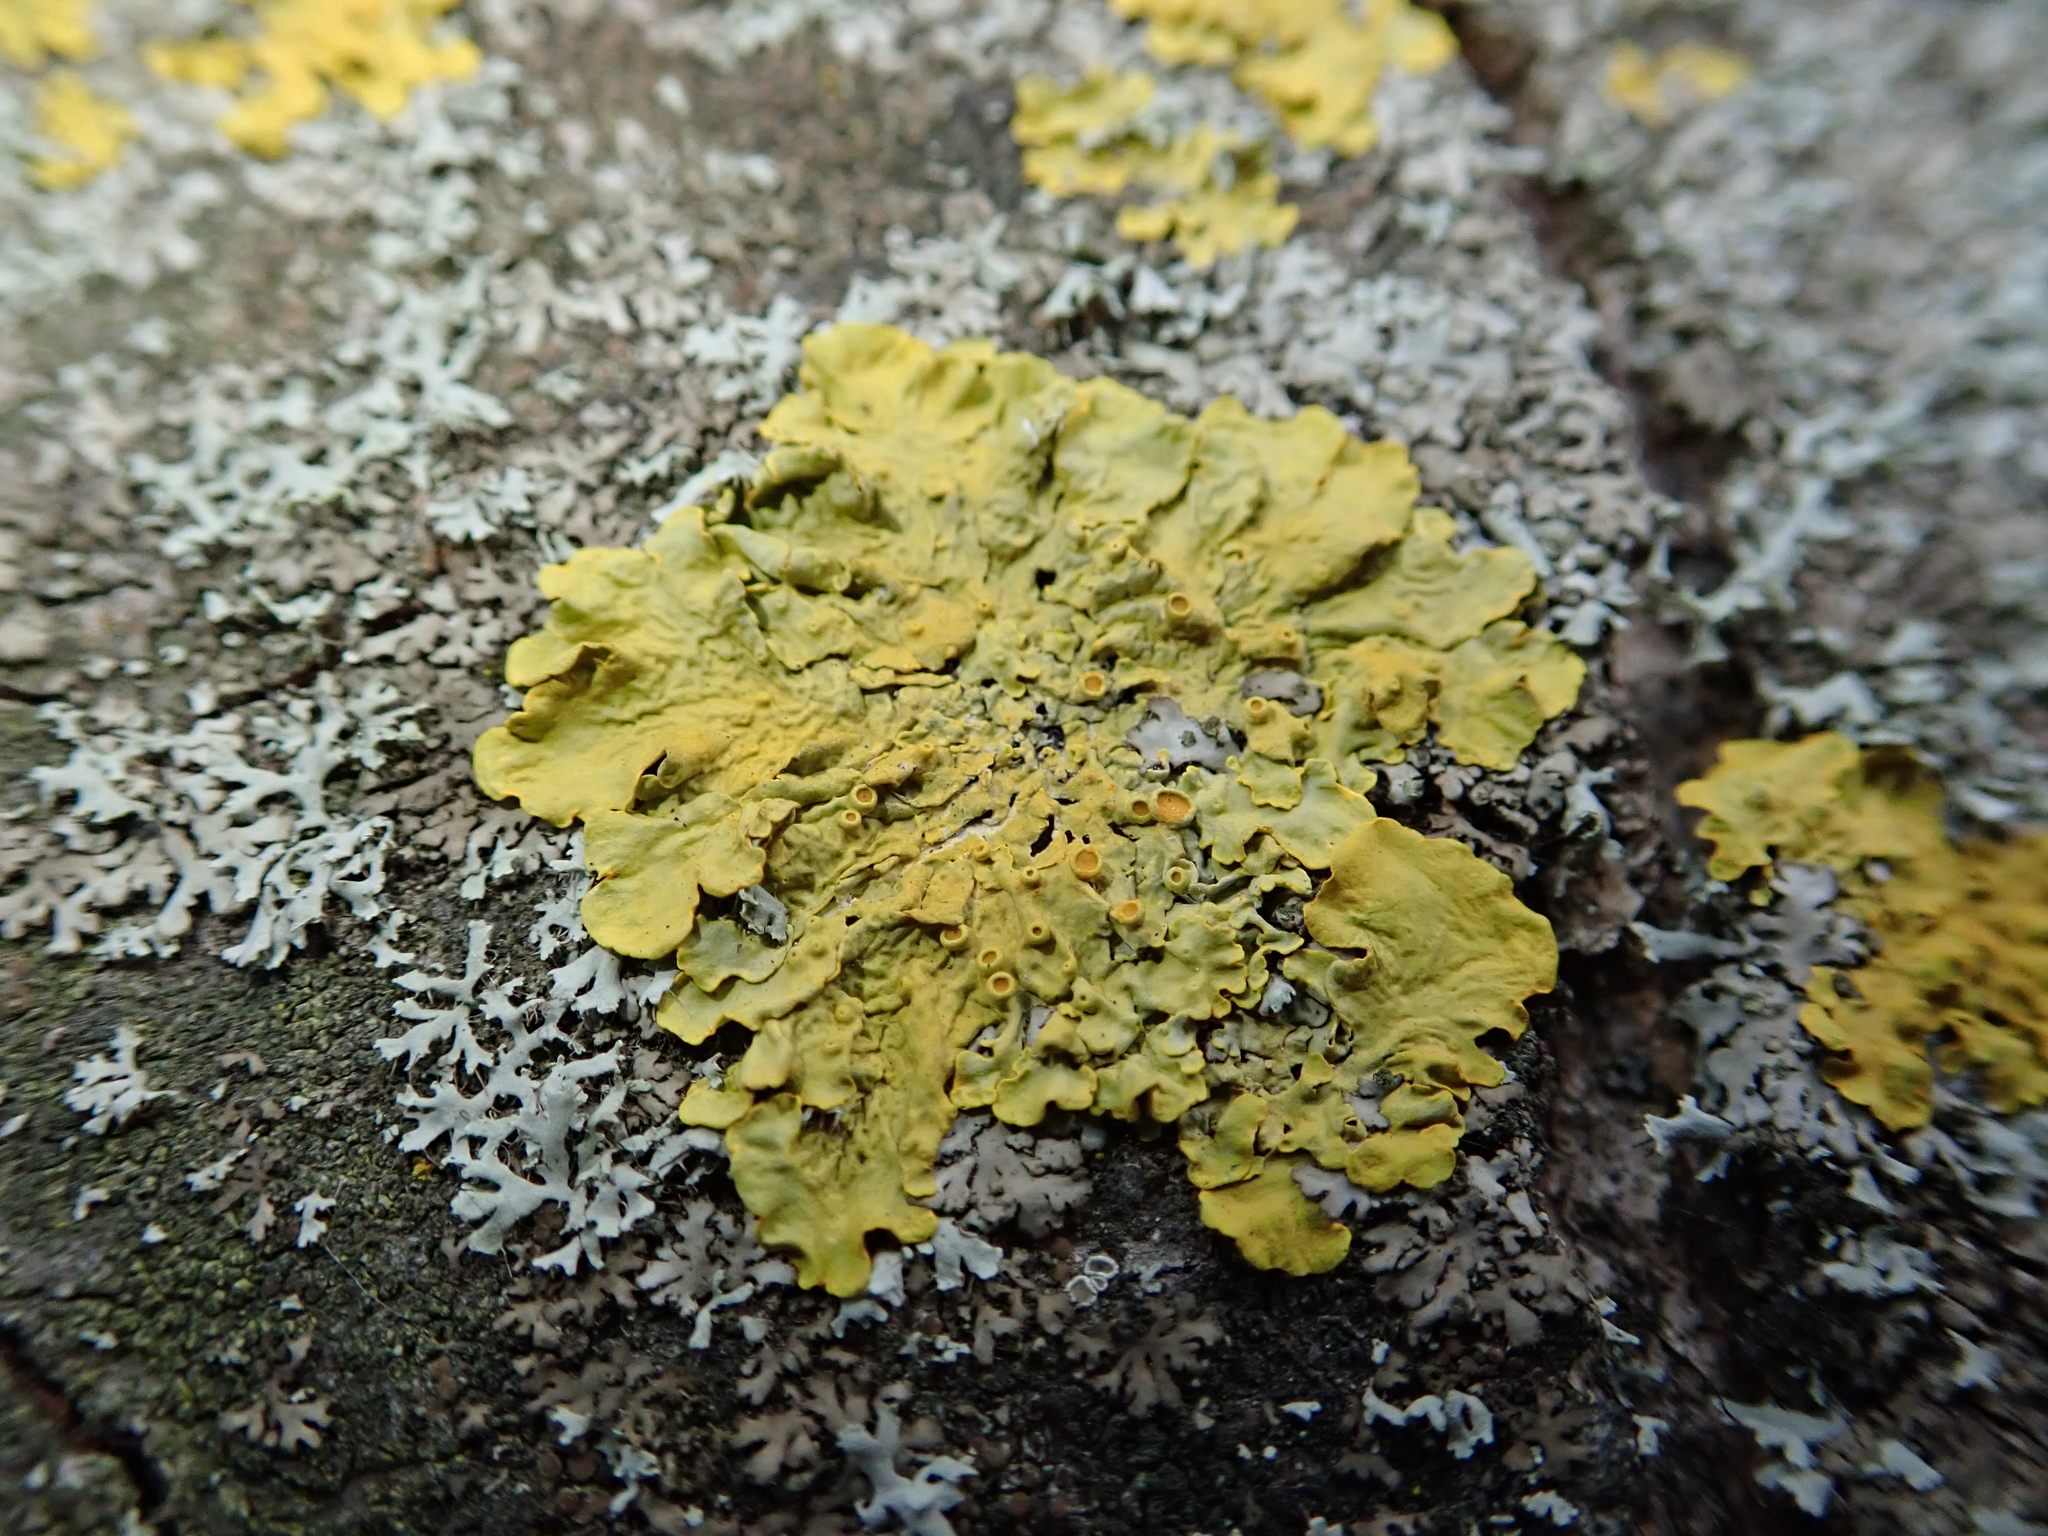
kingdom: Fungi
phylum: Ascomycota
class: Lecanoromycetes
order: Teloschistales
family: Teloschistaceae
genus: Xanthoria
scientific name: Xanthoria parietina
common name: Common orange lichen
